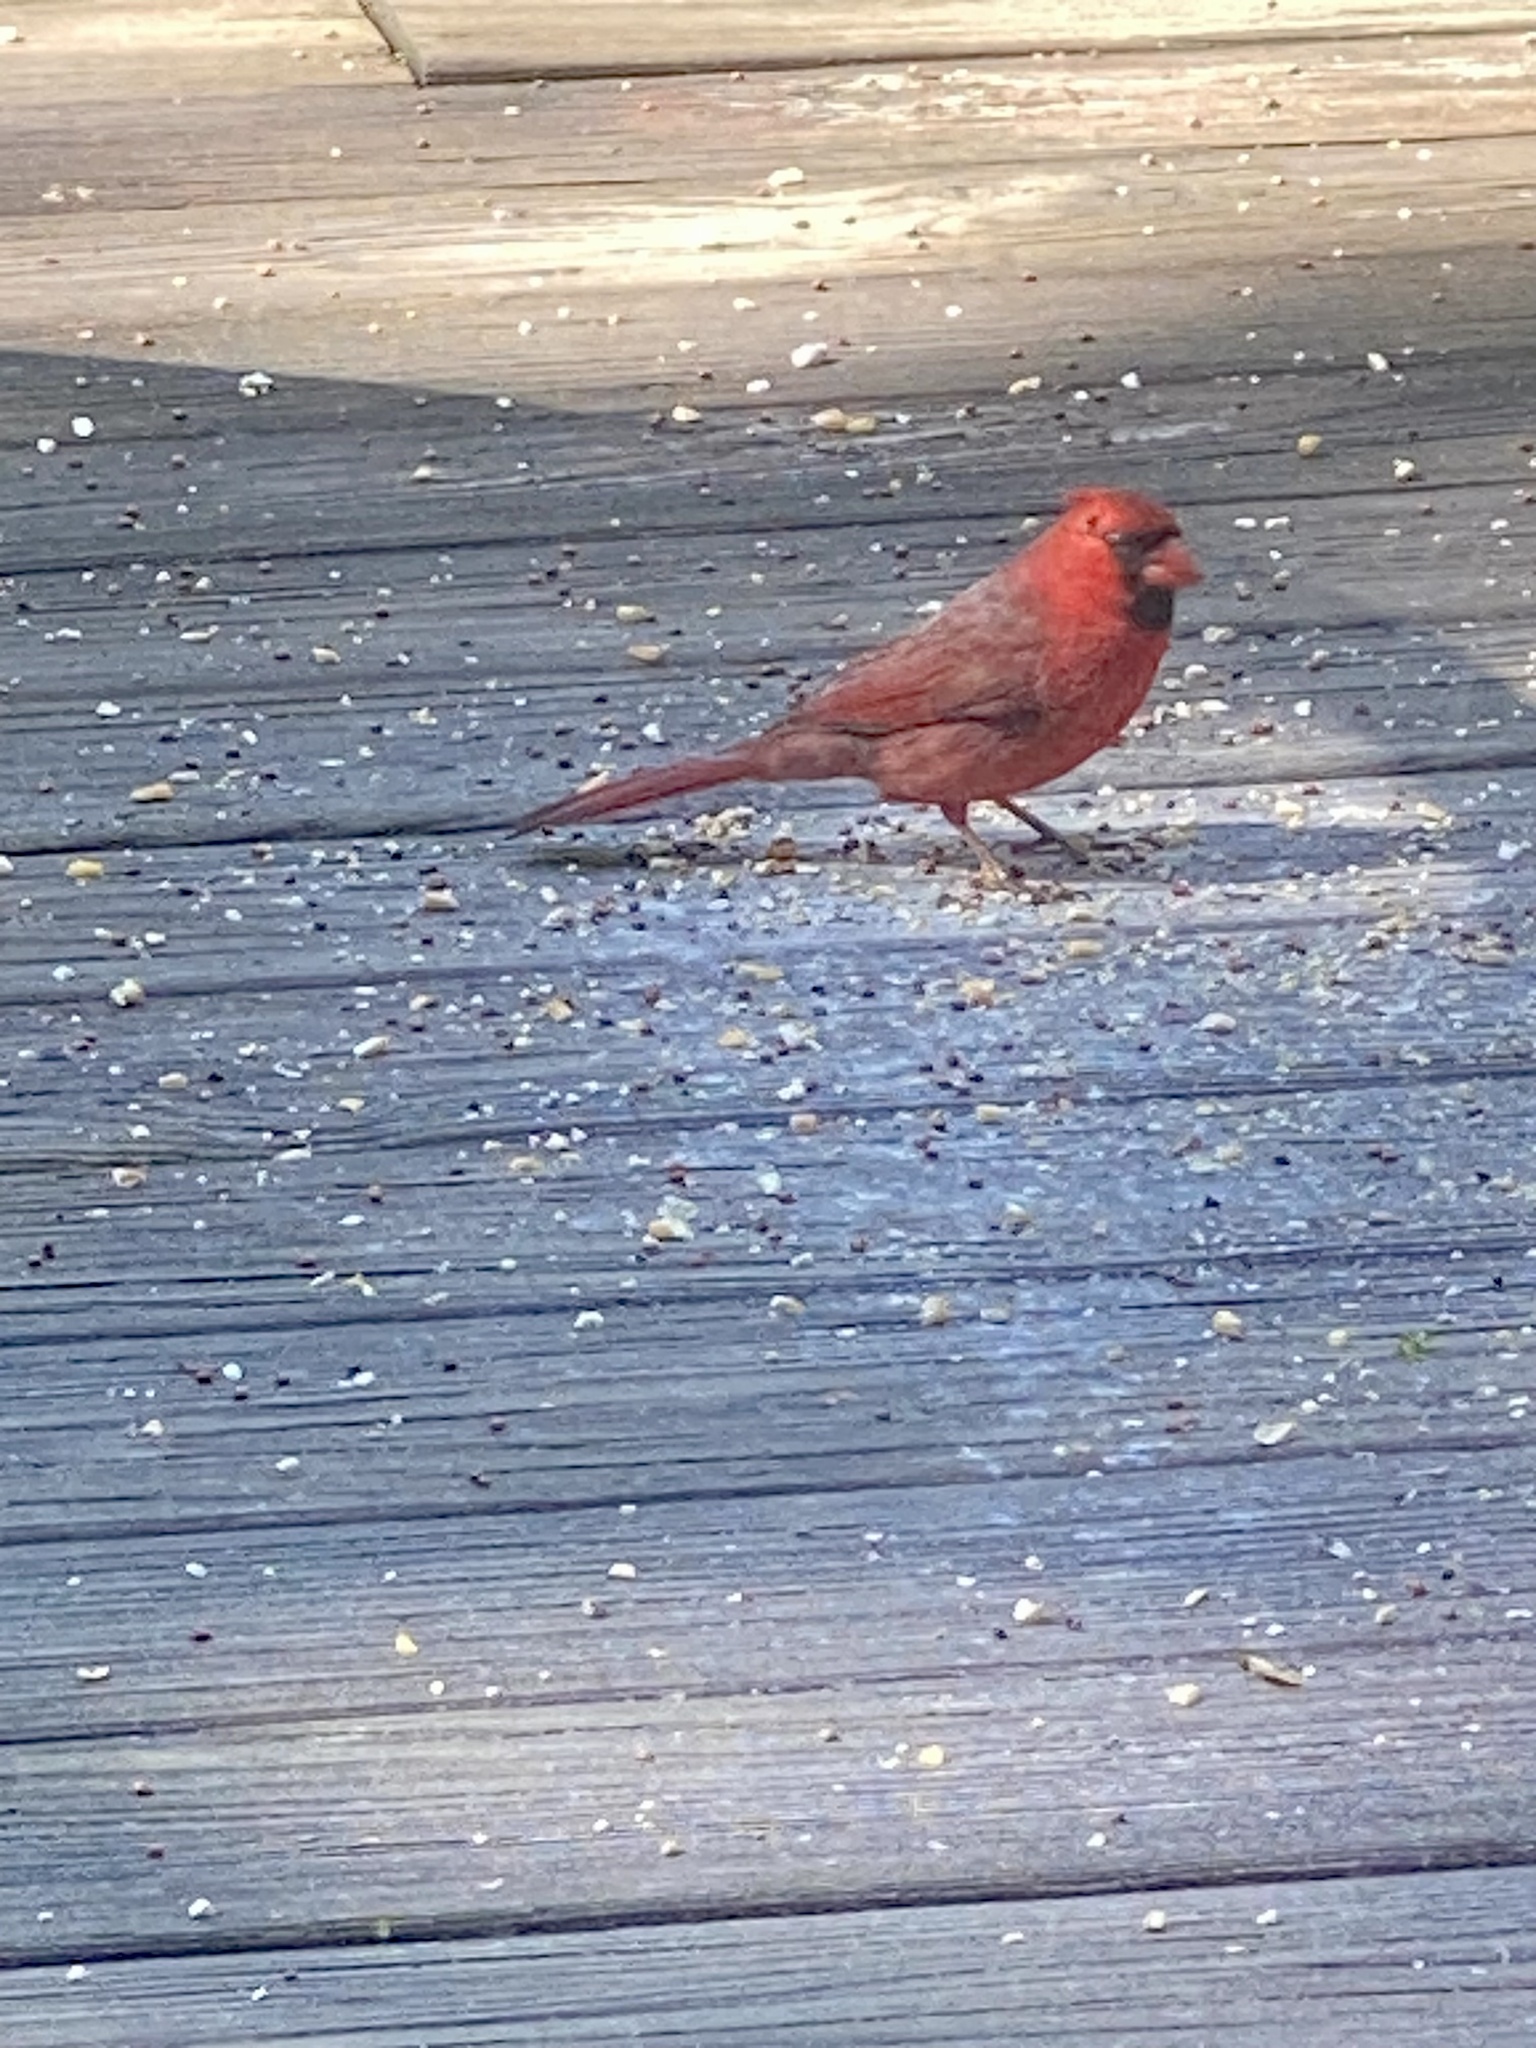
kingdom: Animalia
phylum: Chordata
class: Aves
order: Passeriformes
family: Cardinalidae
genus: Cardinalis
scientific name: Cardinalis cardinalis
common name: Northern cardinal
